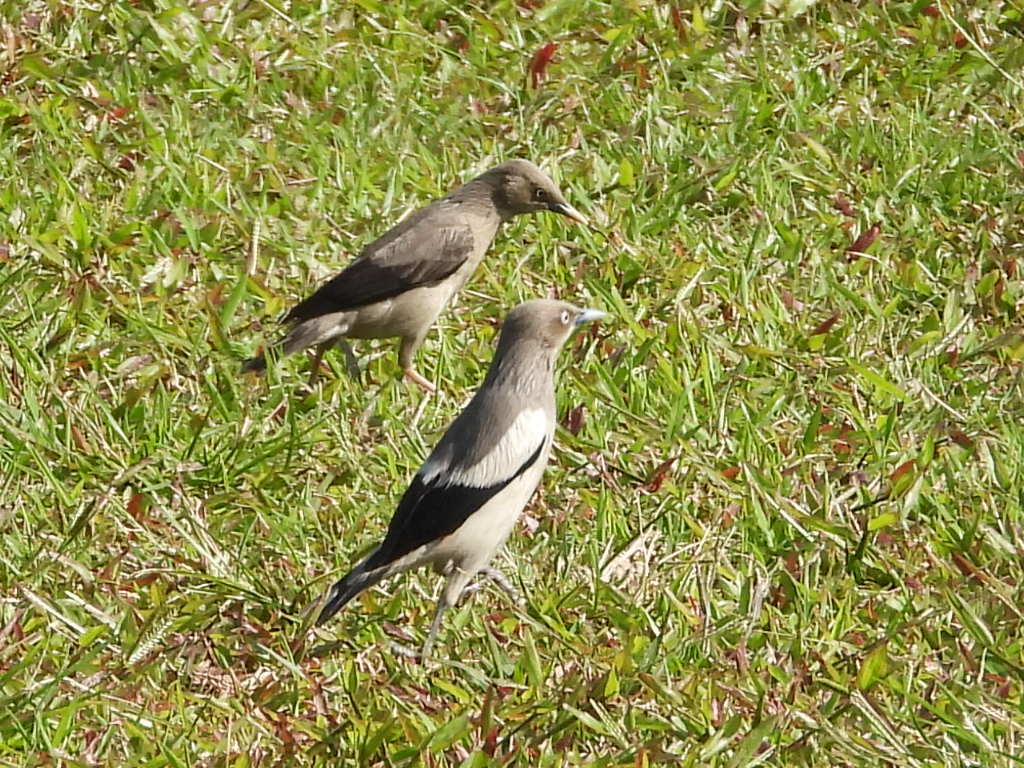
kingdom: Animalia
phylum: Chordata
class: Aves
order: Passeriformes
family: Sturnidae
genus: Sturnia
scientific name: Sturnia sinensis
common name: White-shouldered starling
